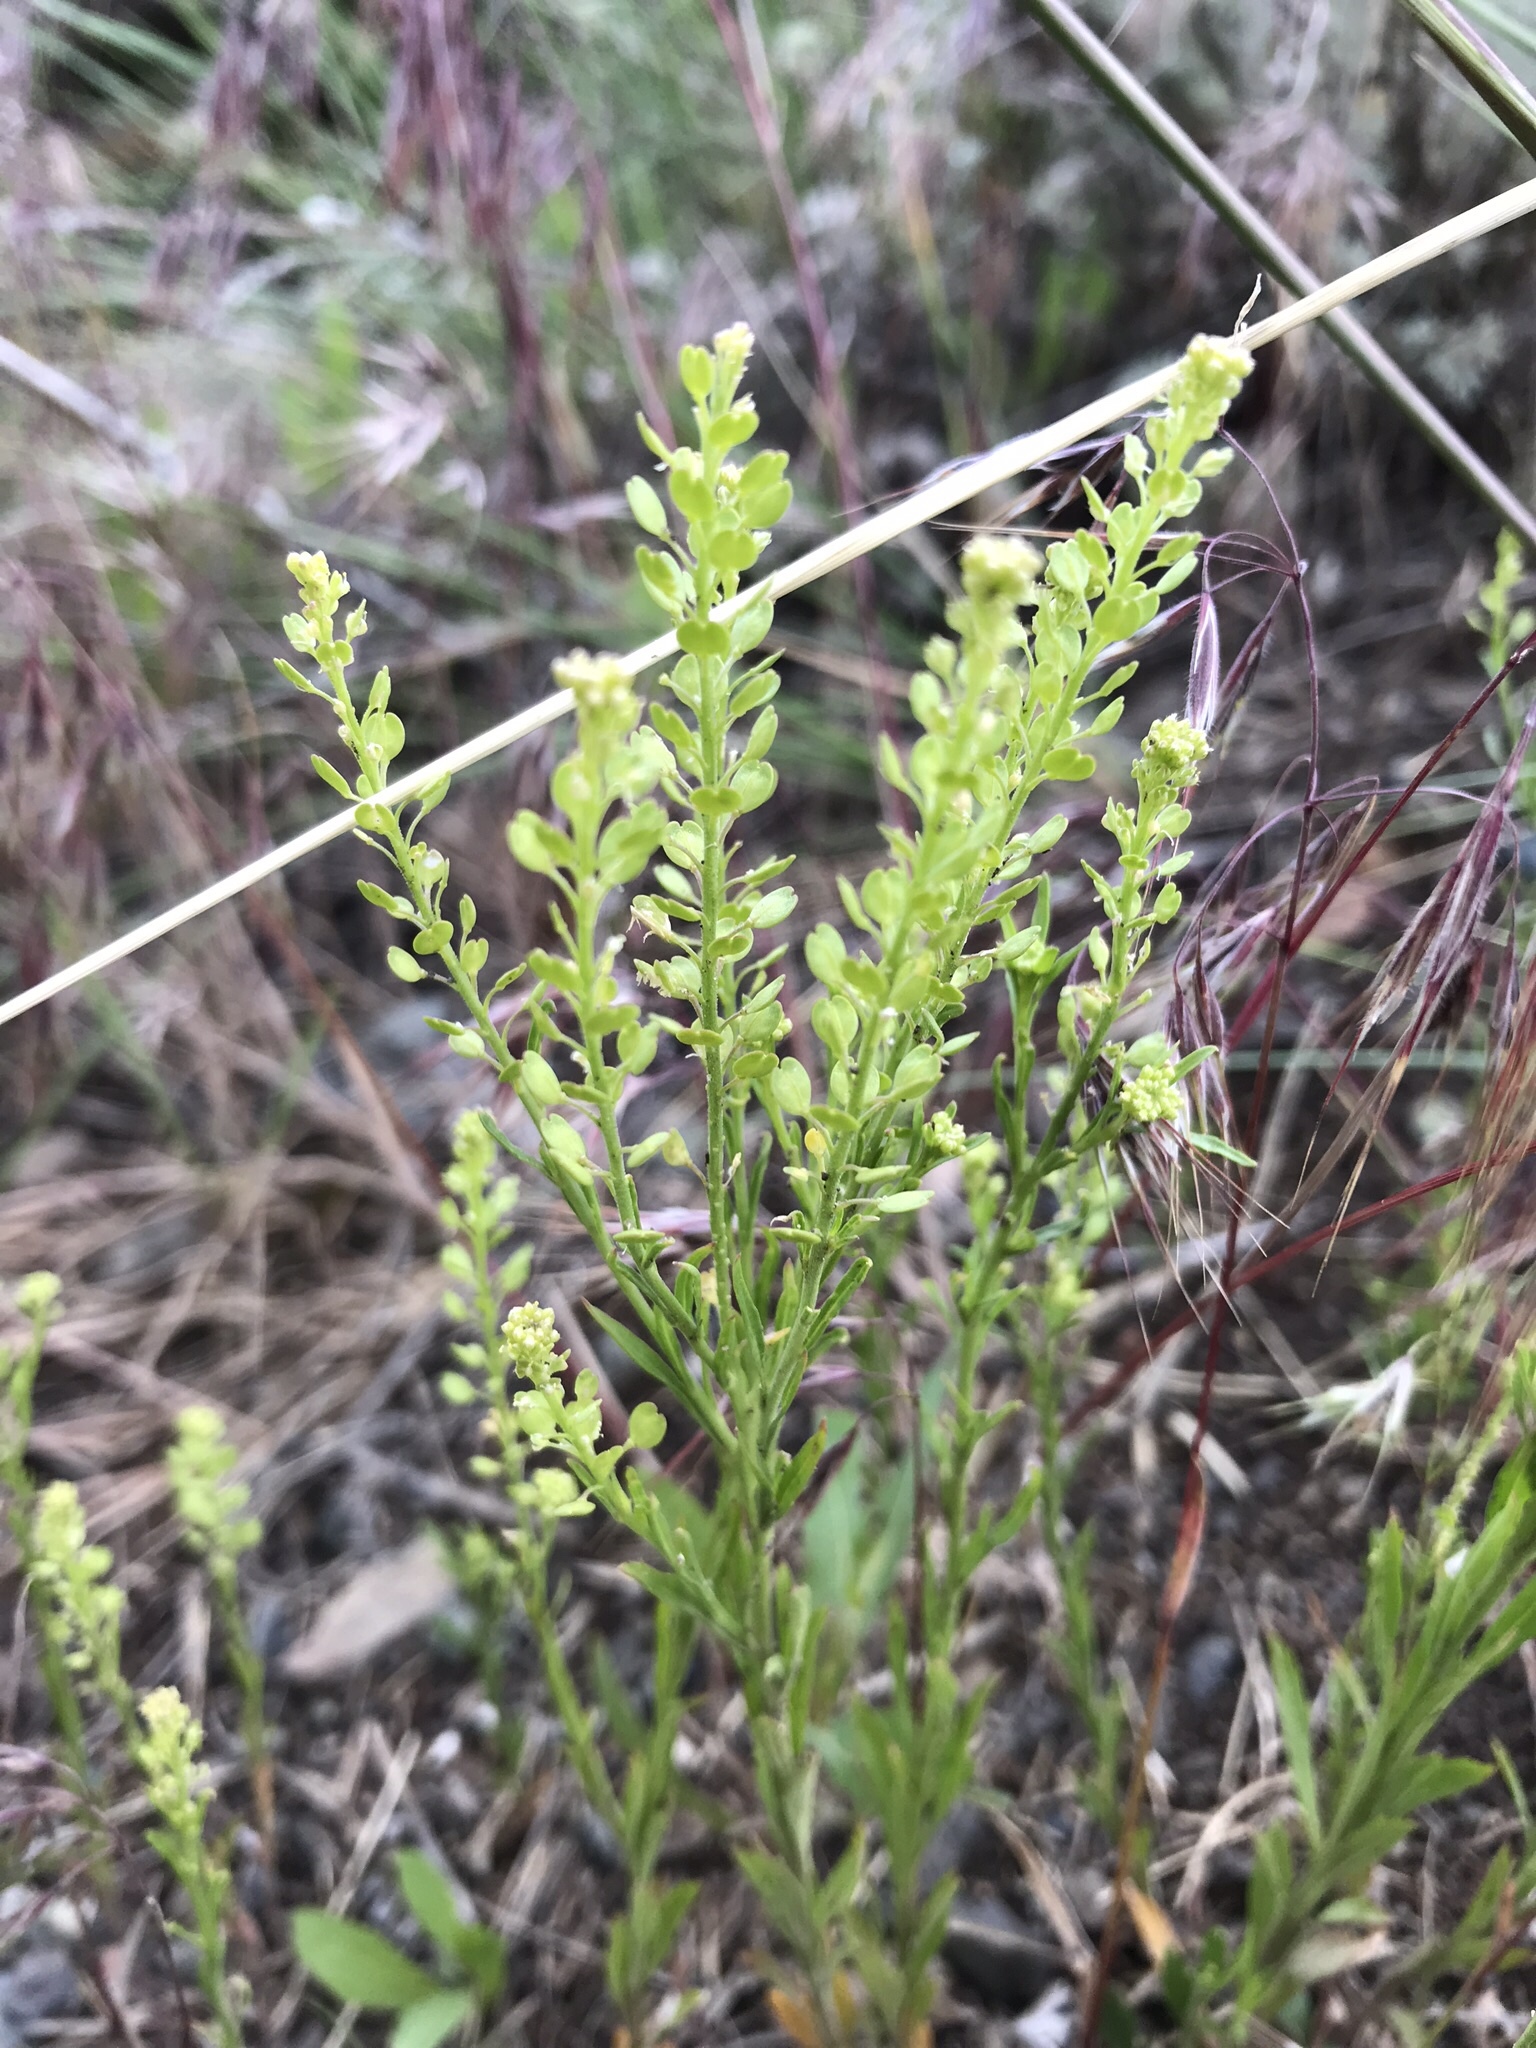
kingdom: Plantae
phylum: Tracheophyta
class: Magnoliopsida
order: Brassicales
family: Brassicaceae
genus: Lepidium
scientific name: Lepidium densiflorum
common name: Miner's pepperwort
